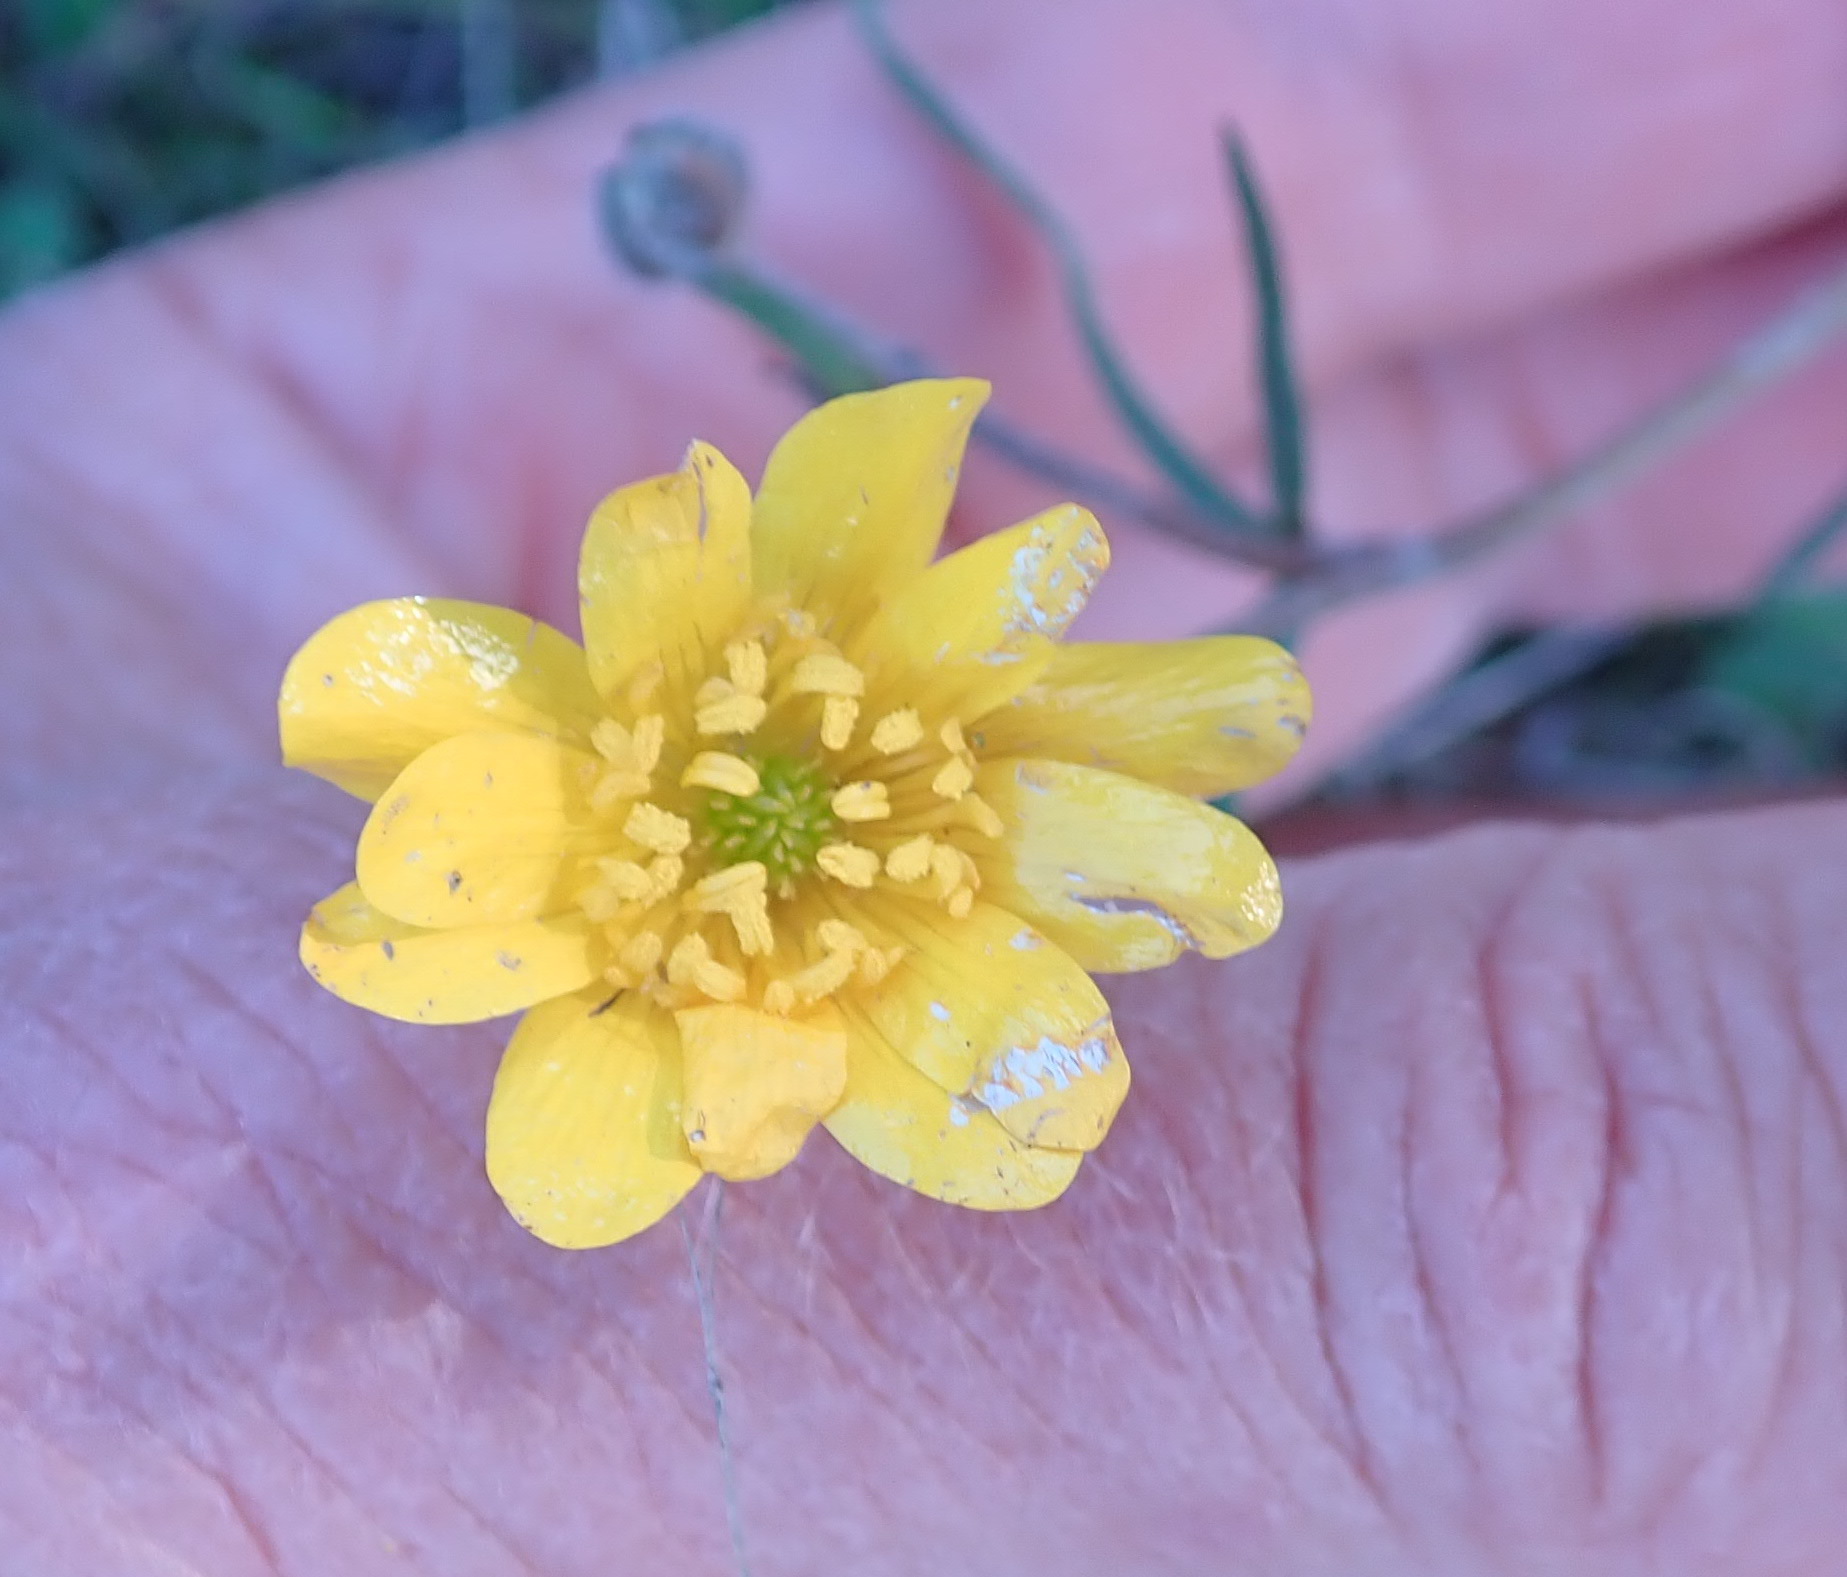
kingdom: Plantae
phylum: Tracheophyta
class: Magnoliopsida
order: Ranunculales
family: Ranunculaceae
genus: Ranunculus
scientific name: Ranunculus californicus
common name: California buttercup
